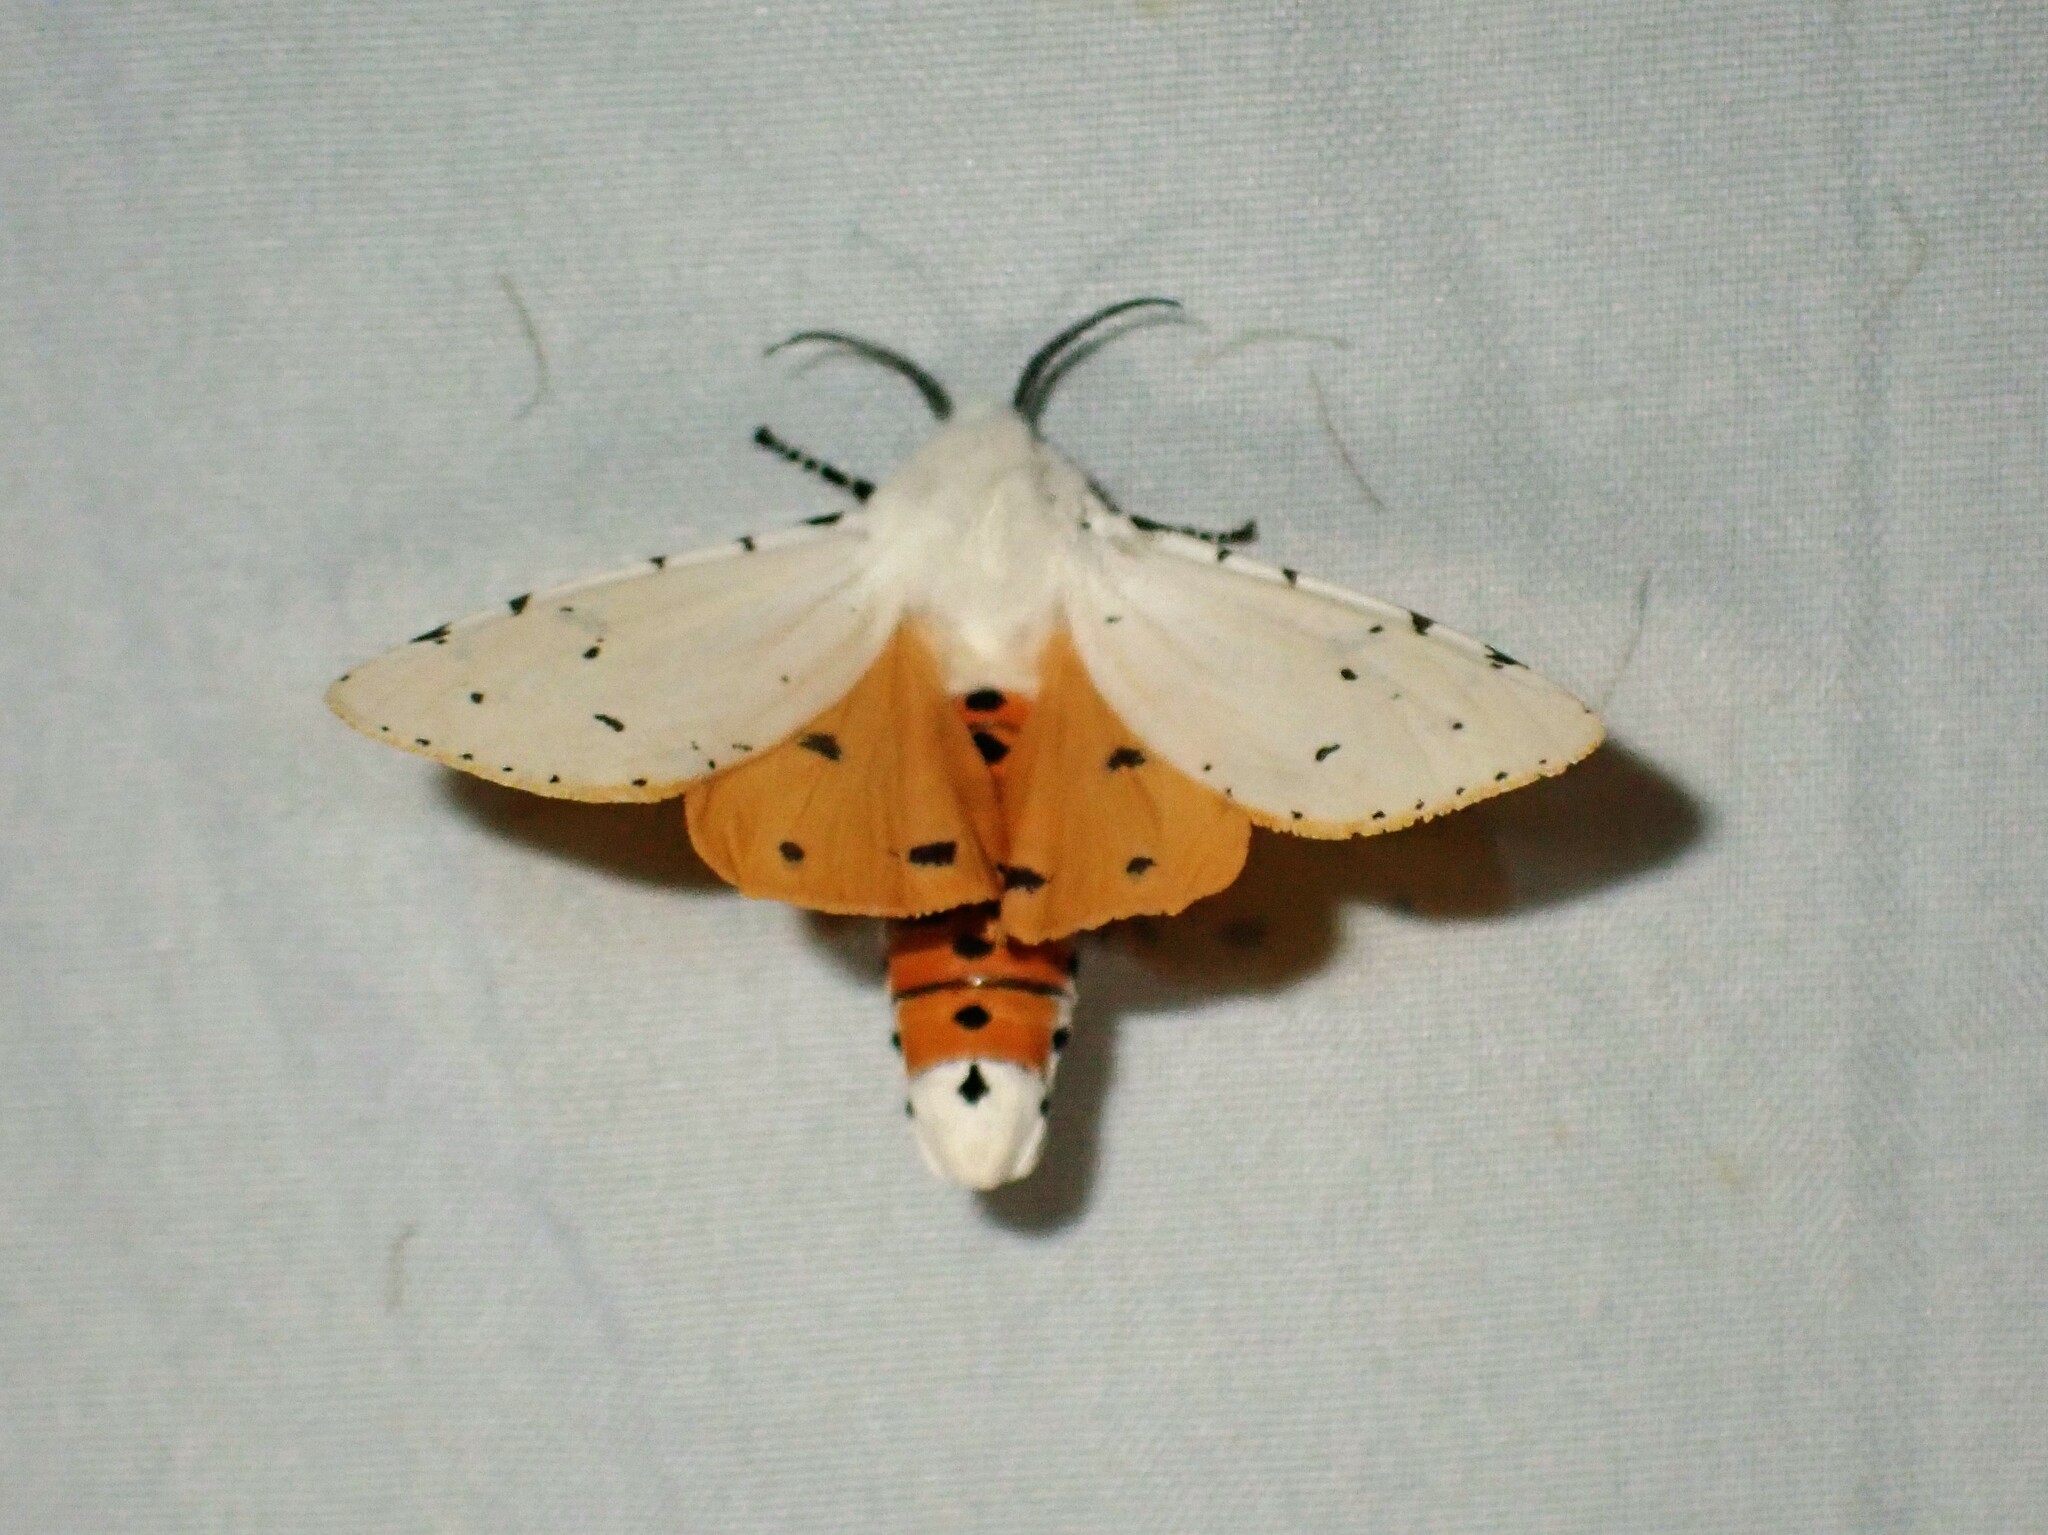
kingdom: Animalia
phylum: Arthropoda
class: Insecta
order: Lepidoptera
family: Erebidae
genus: Estigmene
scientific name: Estigmene acrea
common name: Salt marsh moth
